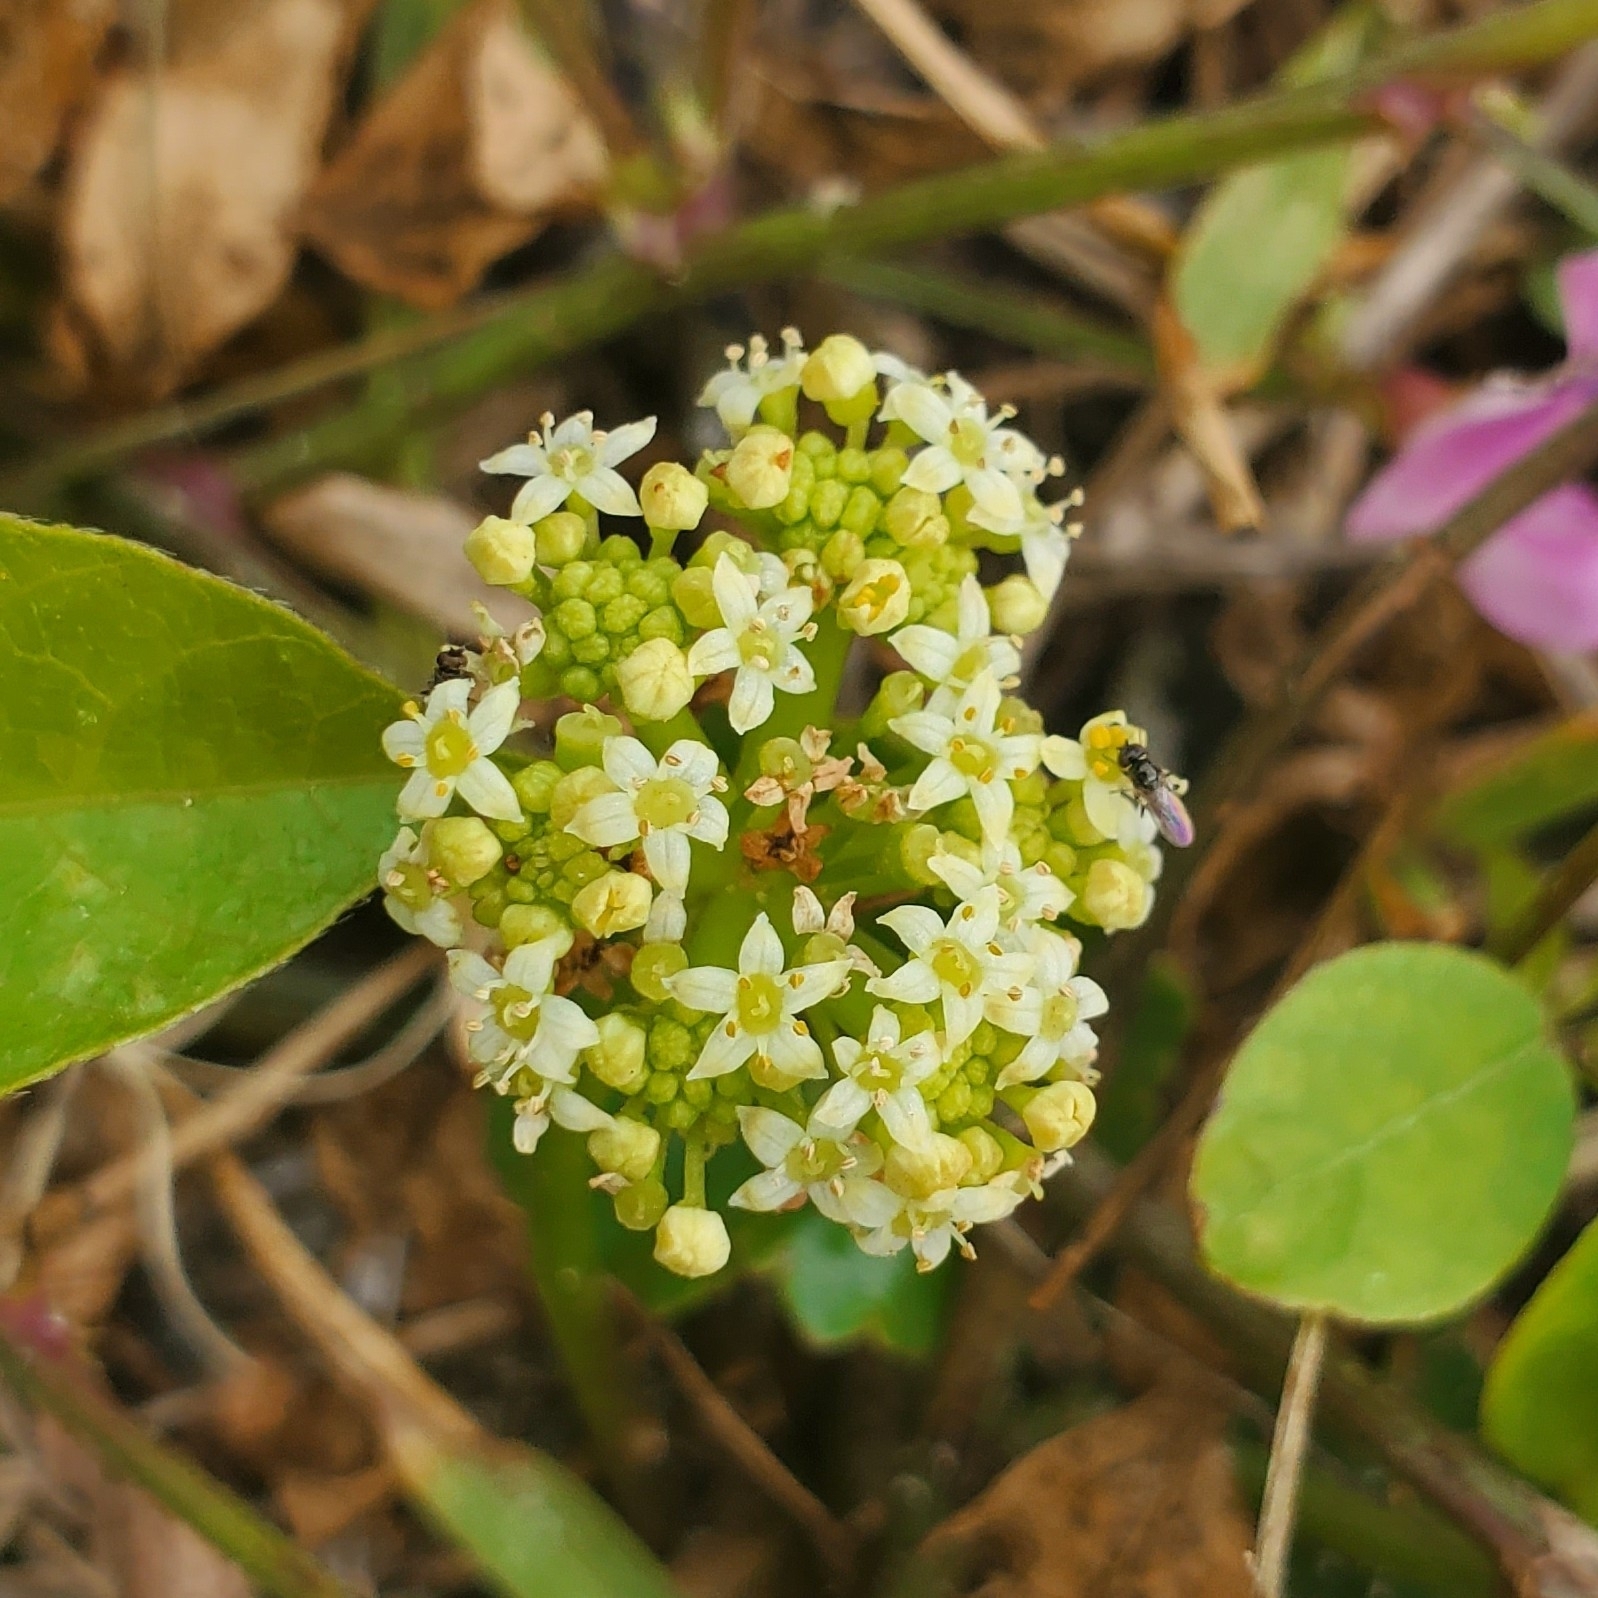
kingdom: Plantae
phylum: Tracheophyta
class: Magnoliopsida
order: Apiales
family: Araliaceae
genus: Hydrocotyle
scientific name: Hydrocotyle bonariensis
